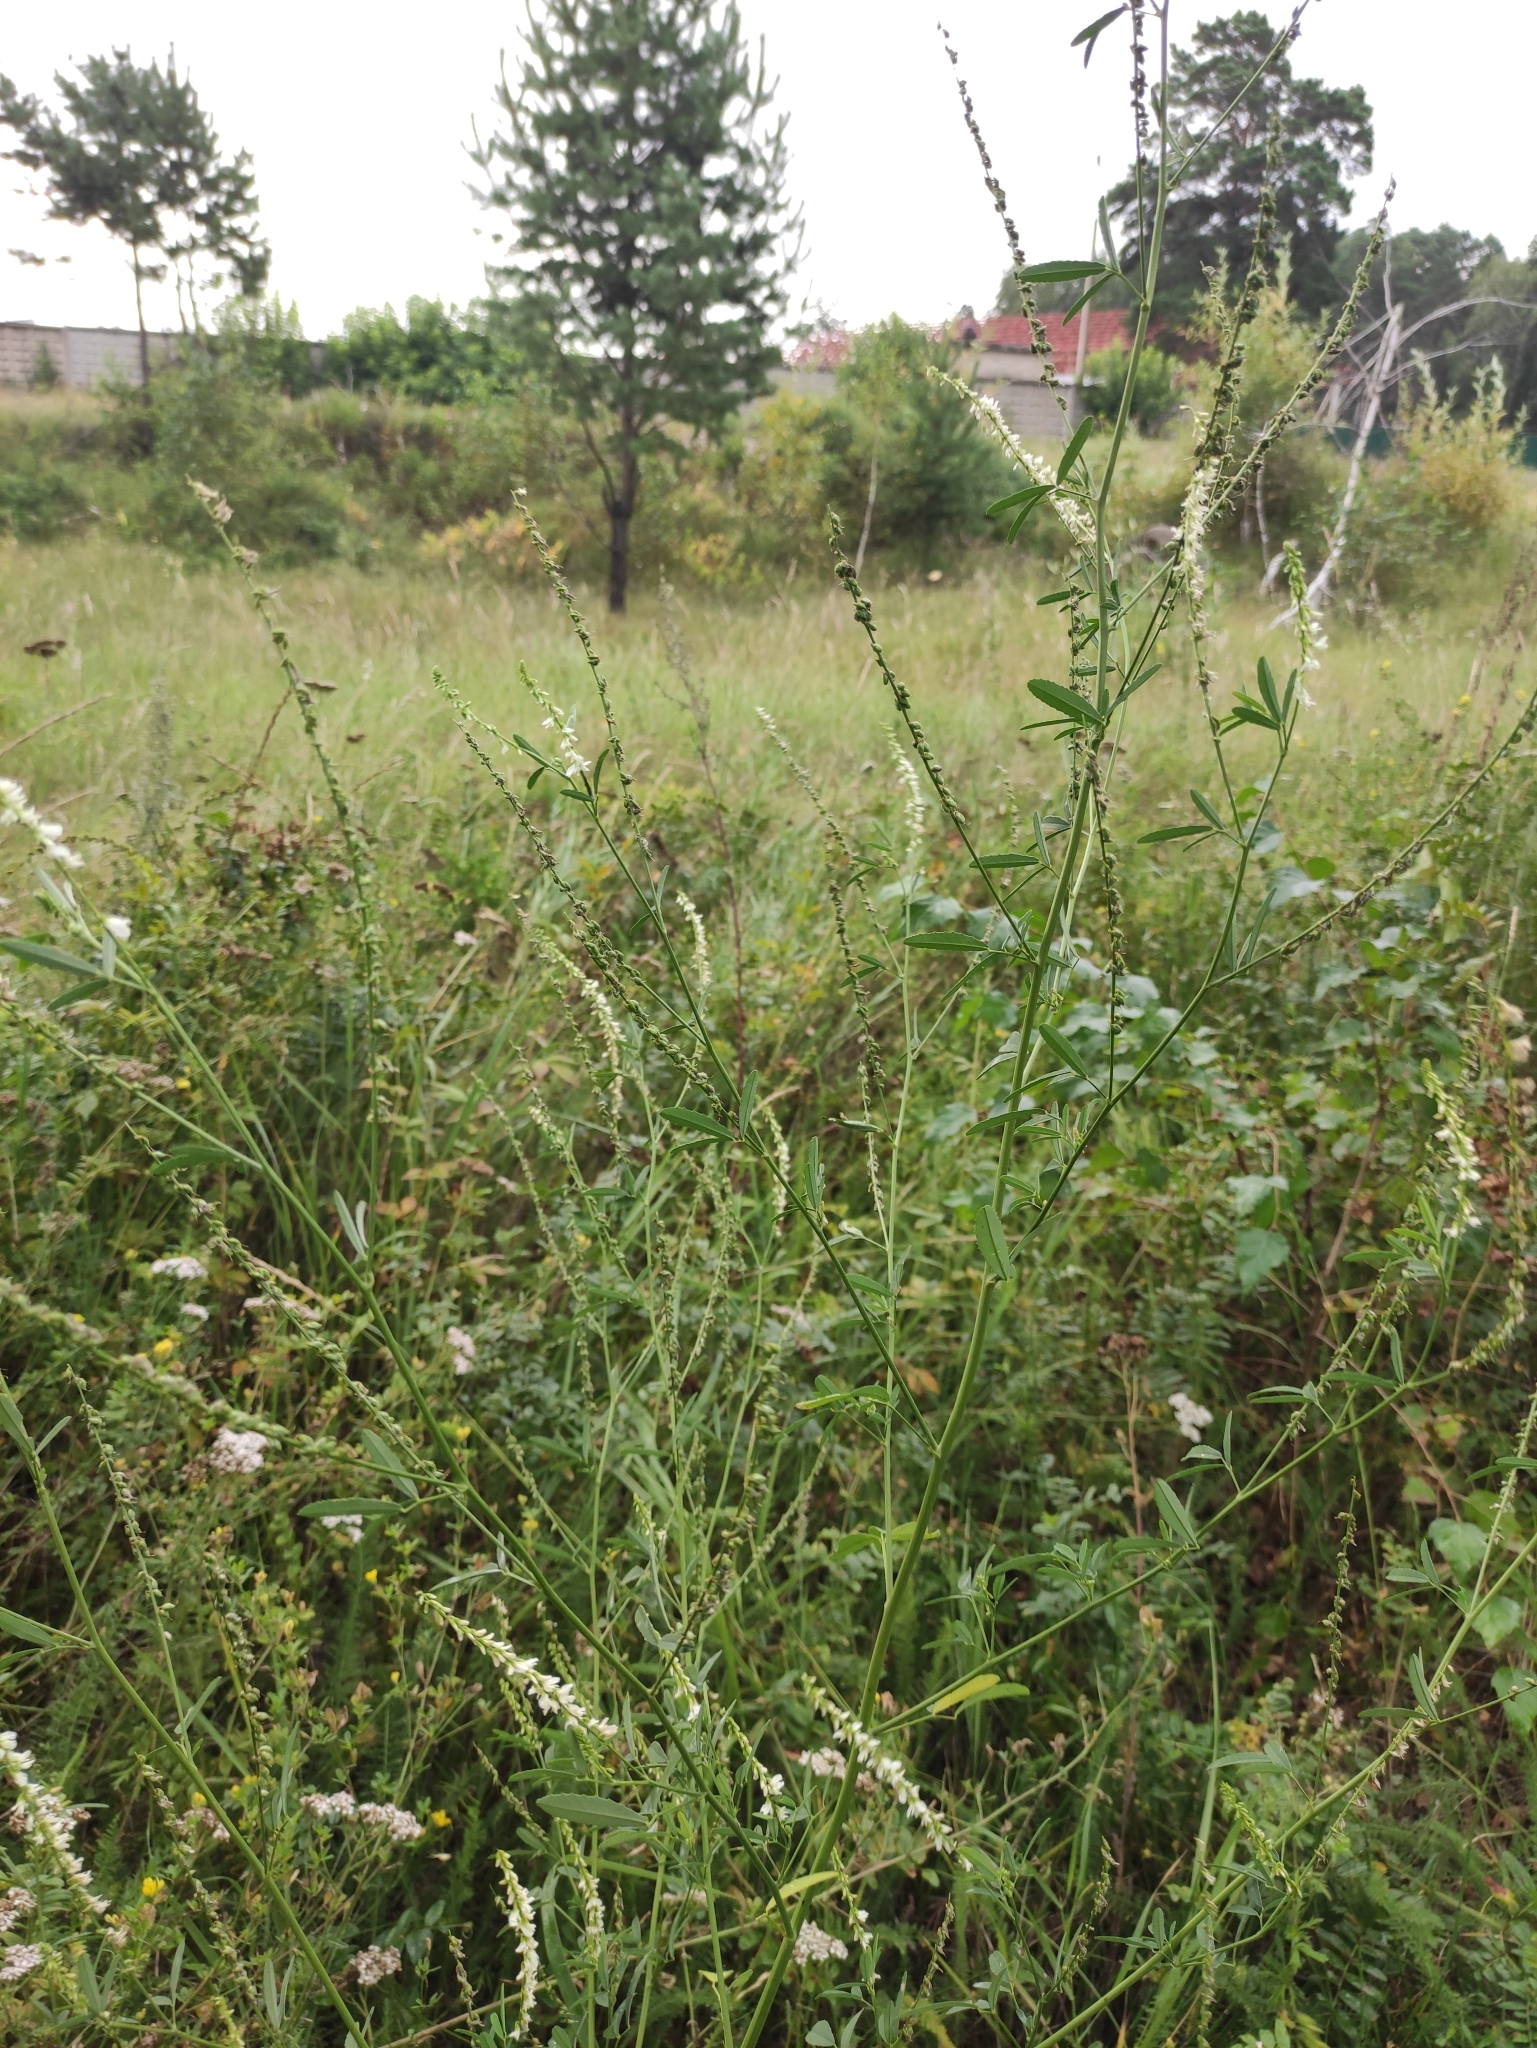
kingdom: Plantae
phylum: Tracheophyta
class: Magnoliopsida
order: Fabales
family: Fabaceae
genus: Melilotus
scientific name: Melilotus albus
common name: White melilot
